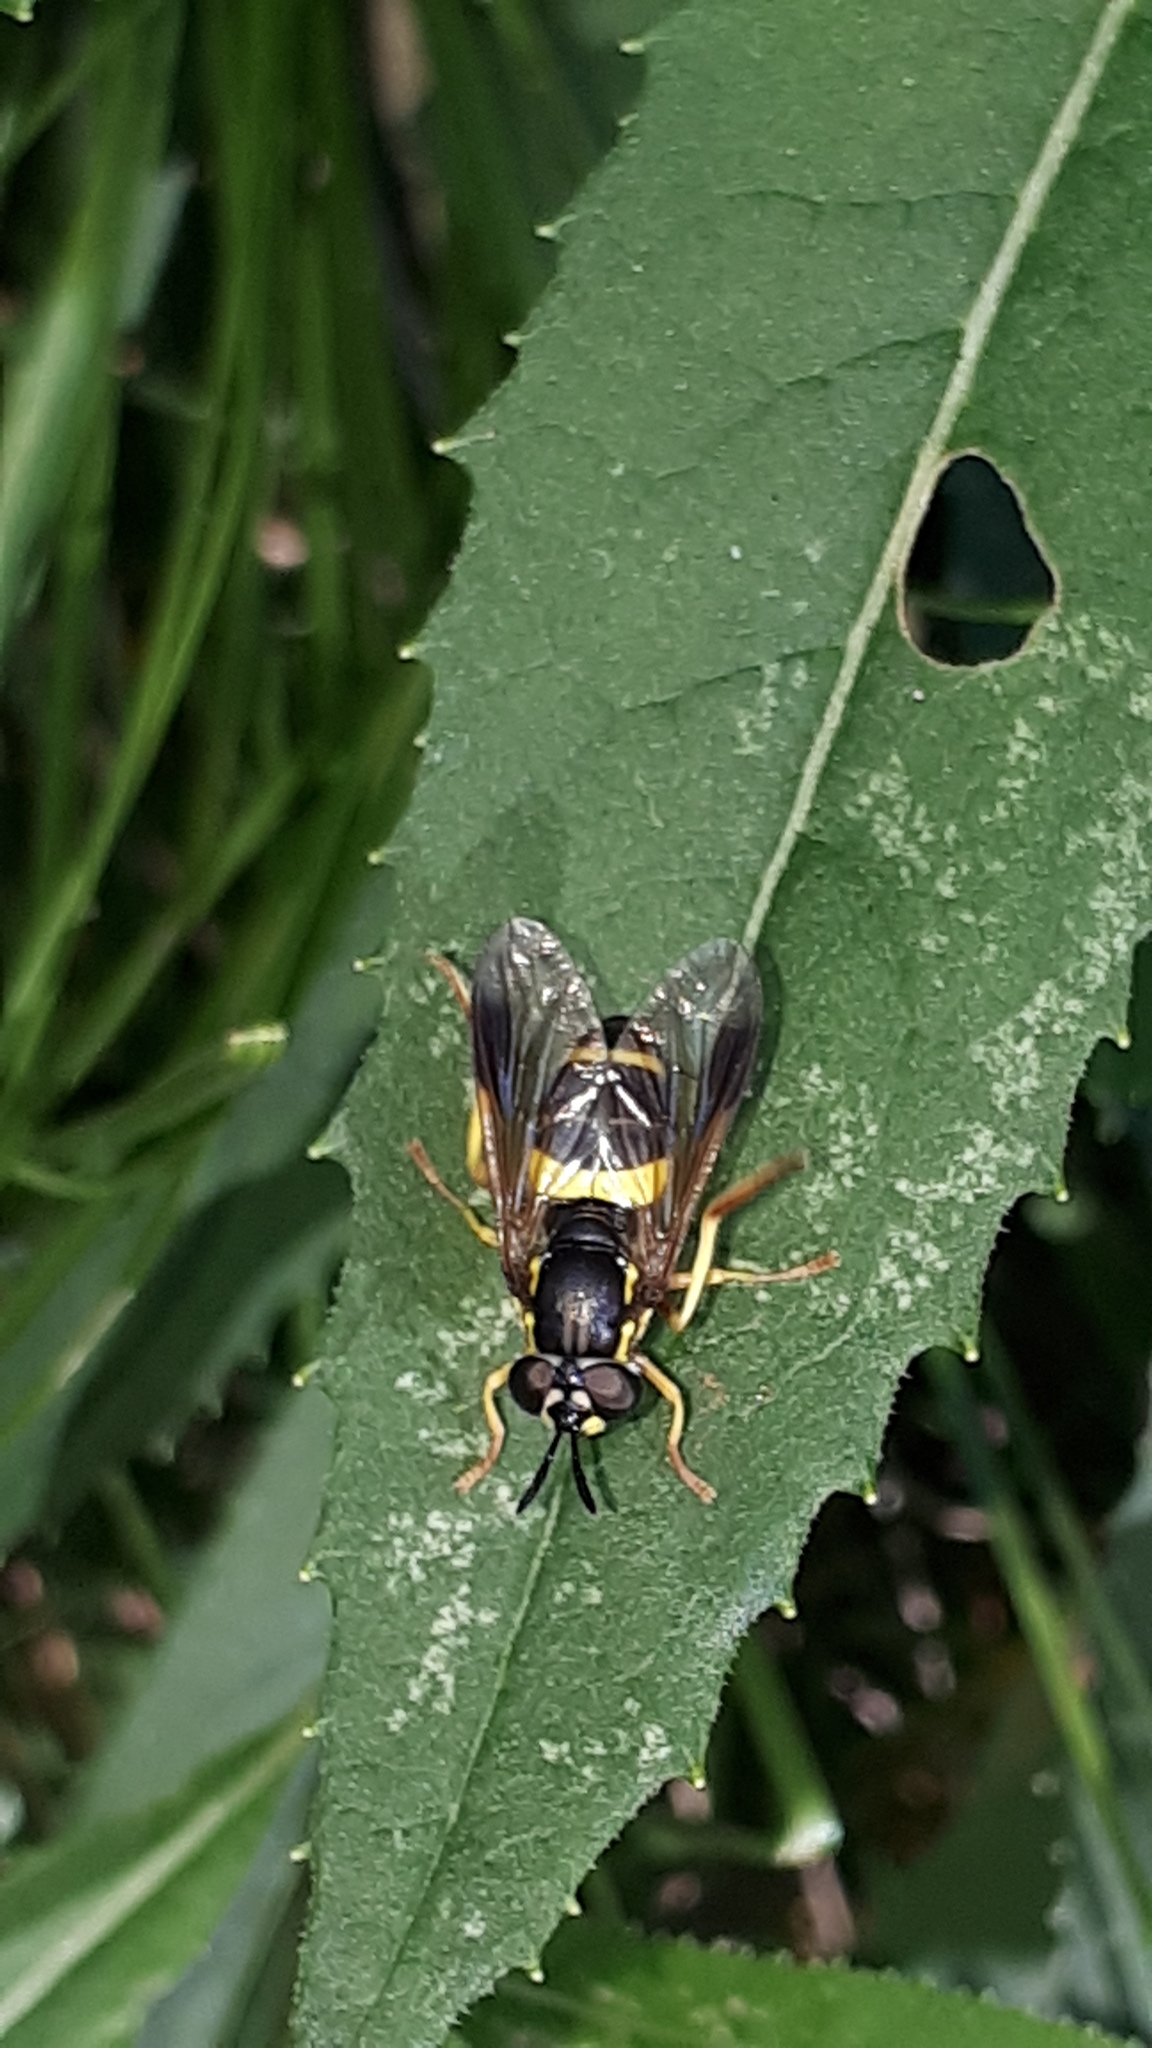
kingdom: Animalia
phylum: Arthropoda
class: Insecta
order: Diptera
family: Syrphidae
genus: Chrysotoxum
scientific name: Chrysotoxum bicincta
